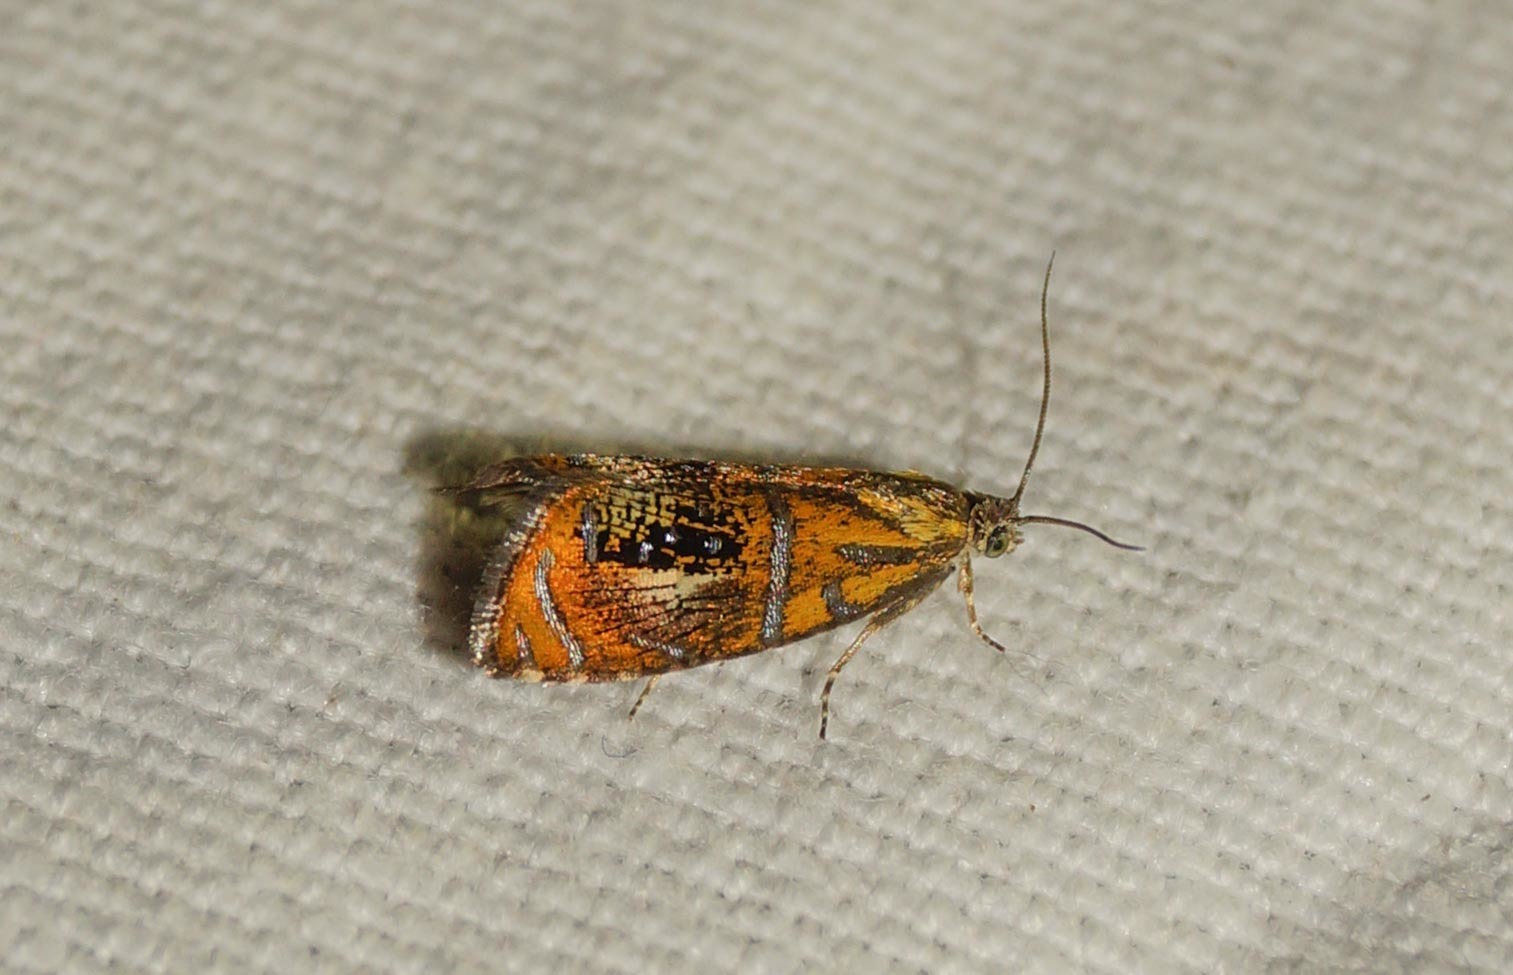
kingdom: Animalia
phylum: Arthropoda
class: Insecta
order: Lepidoptera
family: Tortricidae
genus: Olethreutes
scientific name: Olethreutes arcuella
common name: Arched marble
